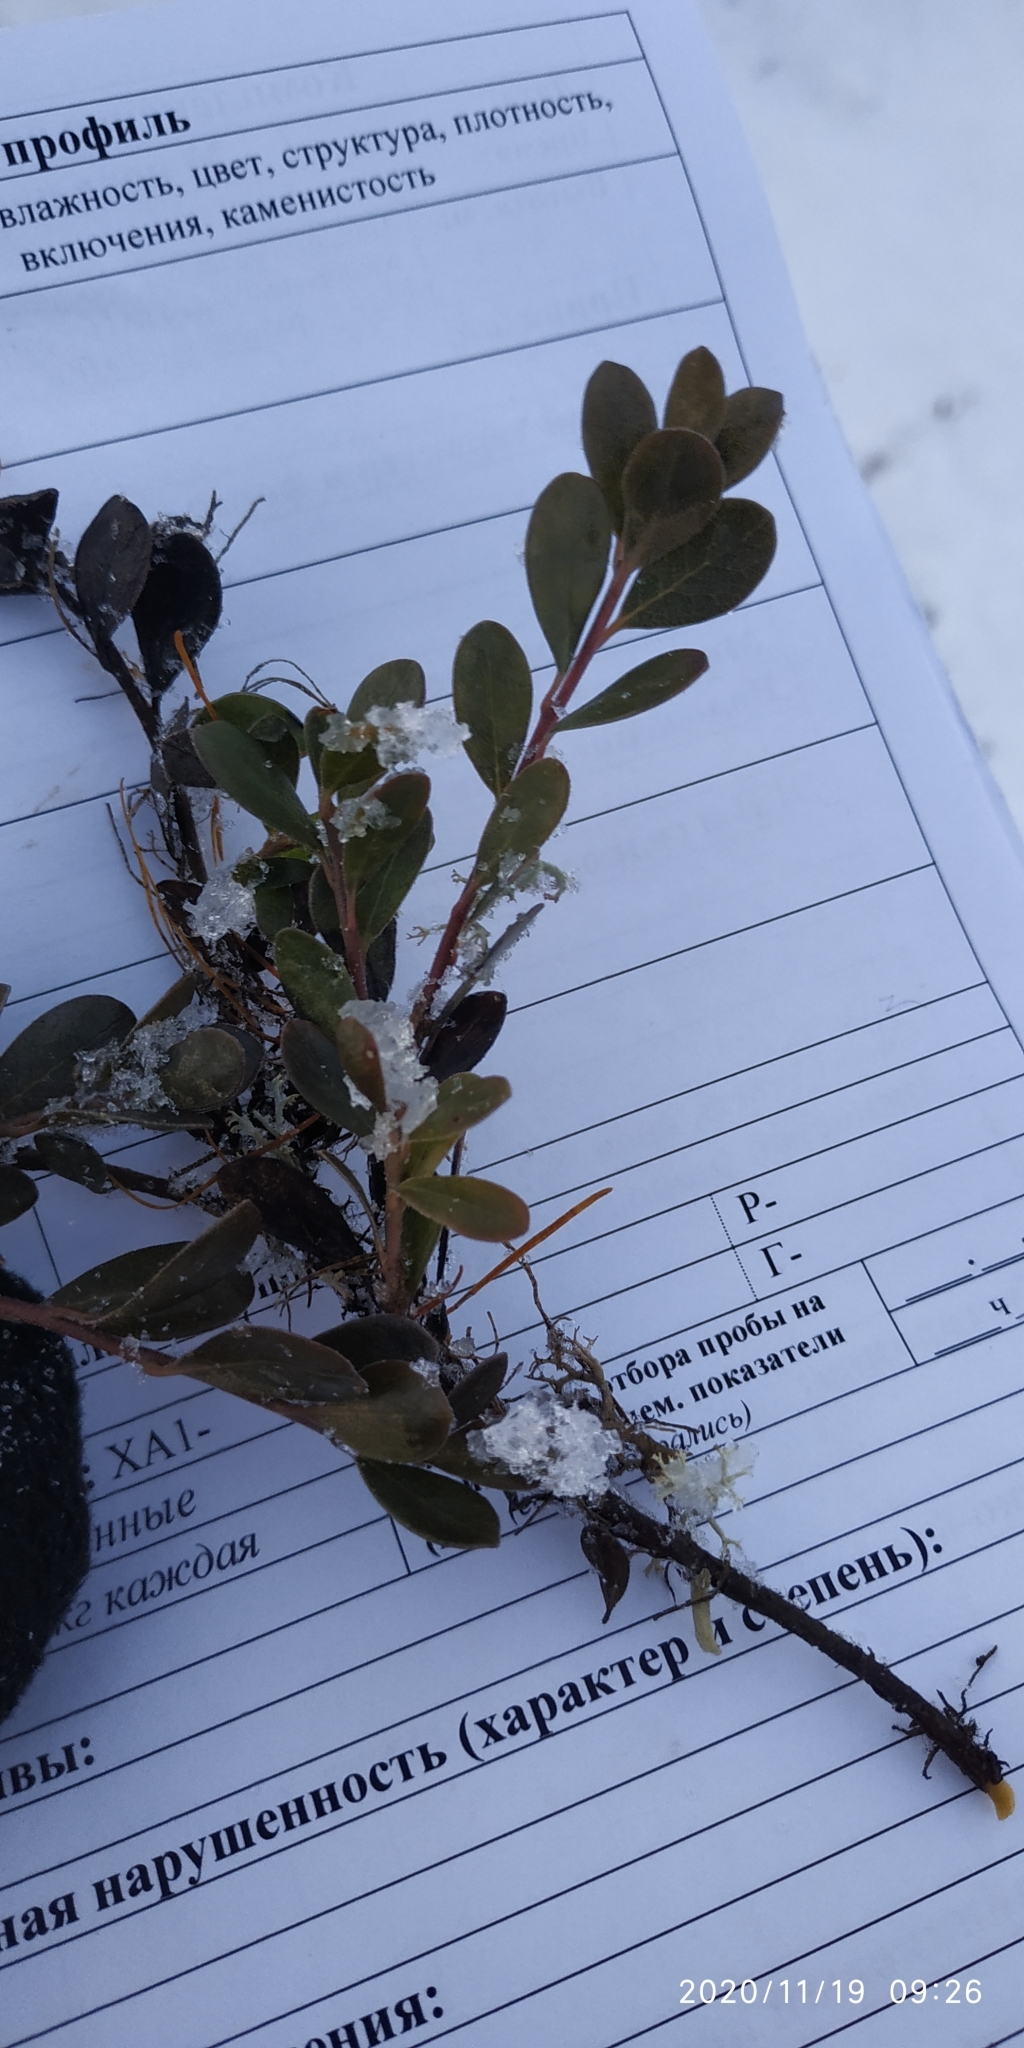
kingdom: Plantae
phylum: Tracheophyta
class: Magnoliopsida
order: Ericales
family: Ericaceae
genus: Arctostaphylos
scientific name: Arctostaphylos uva-ursi
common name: Bearberry
